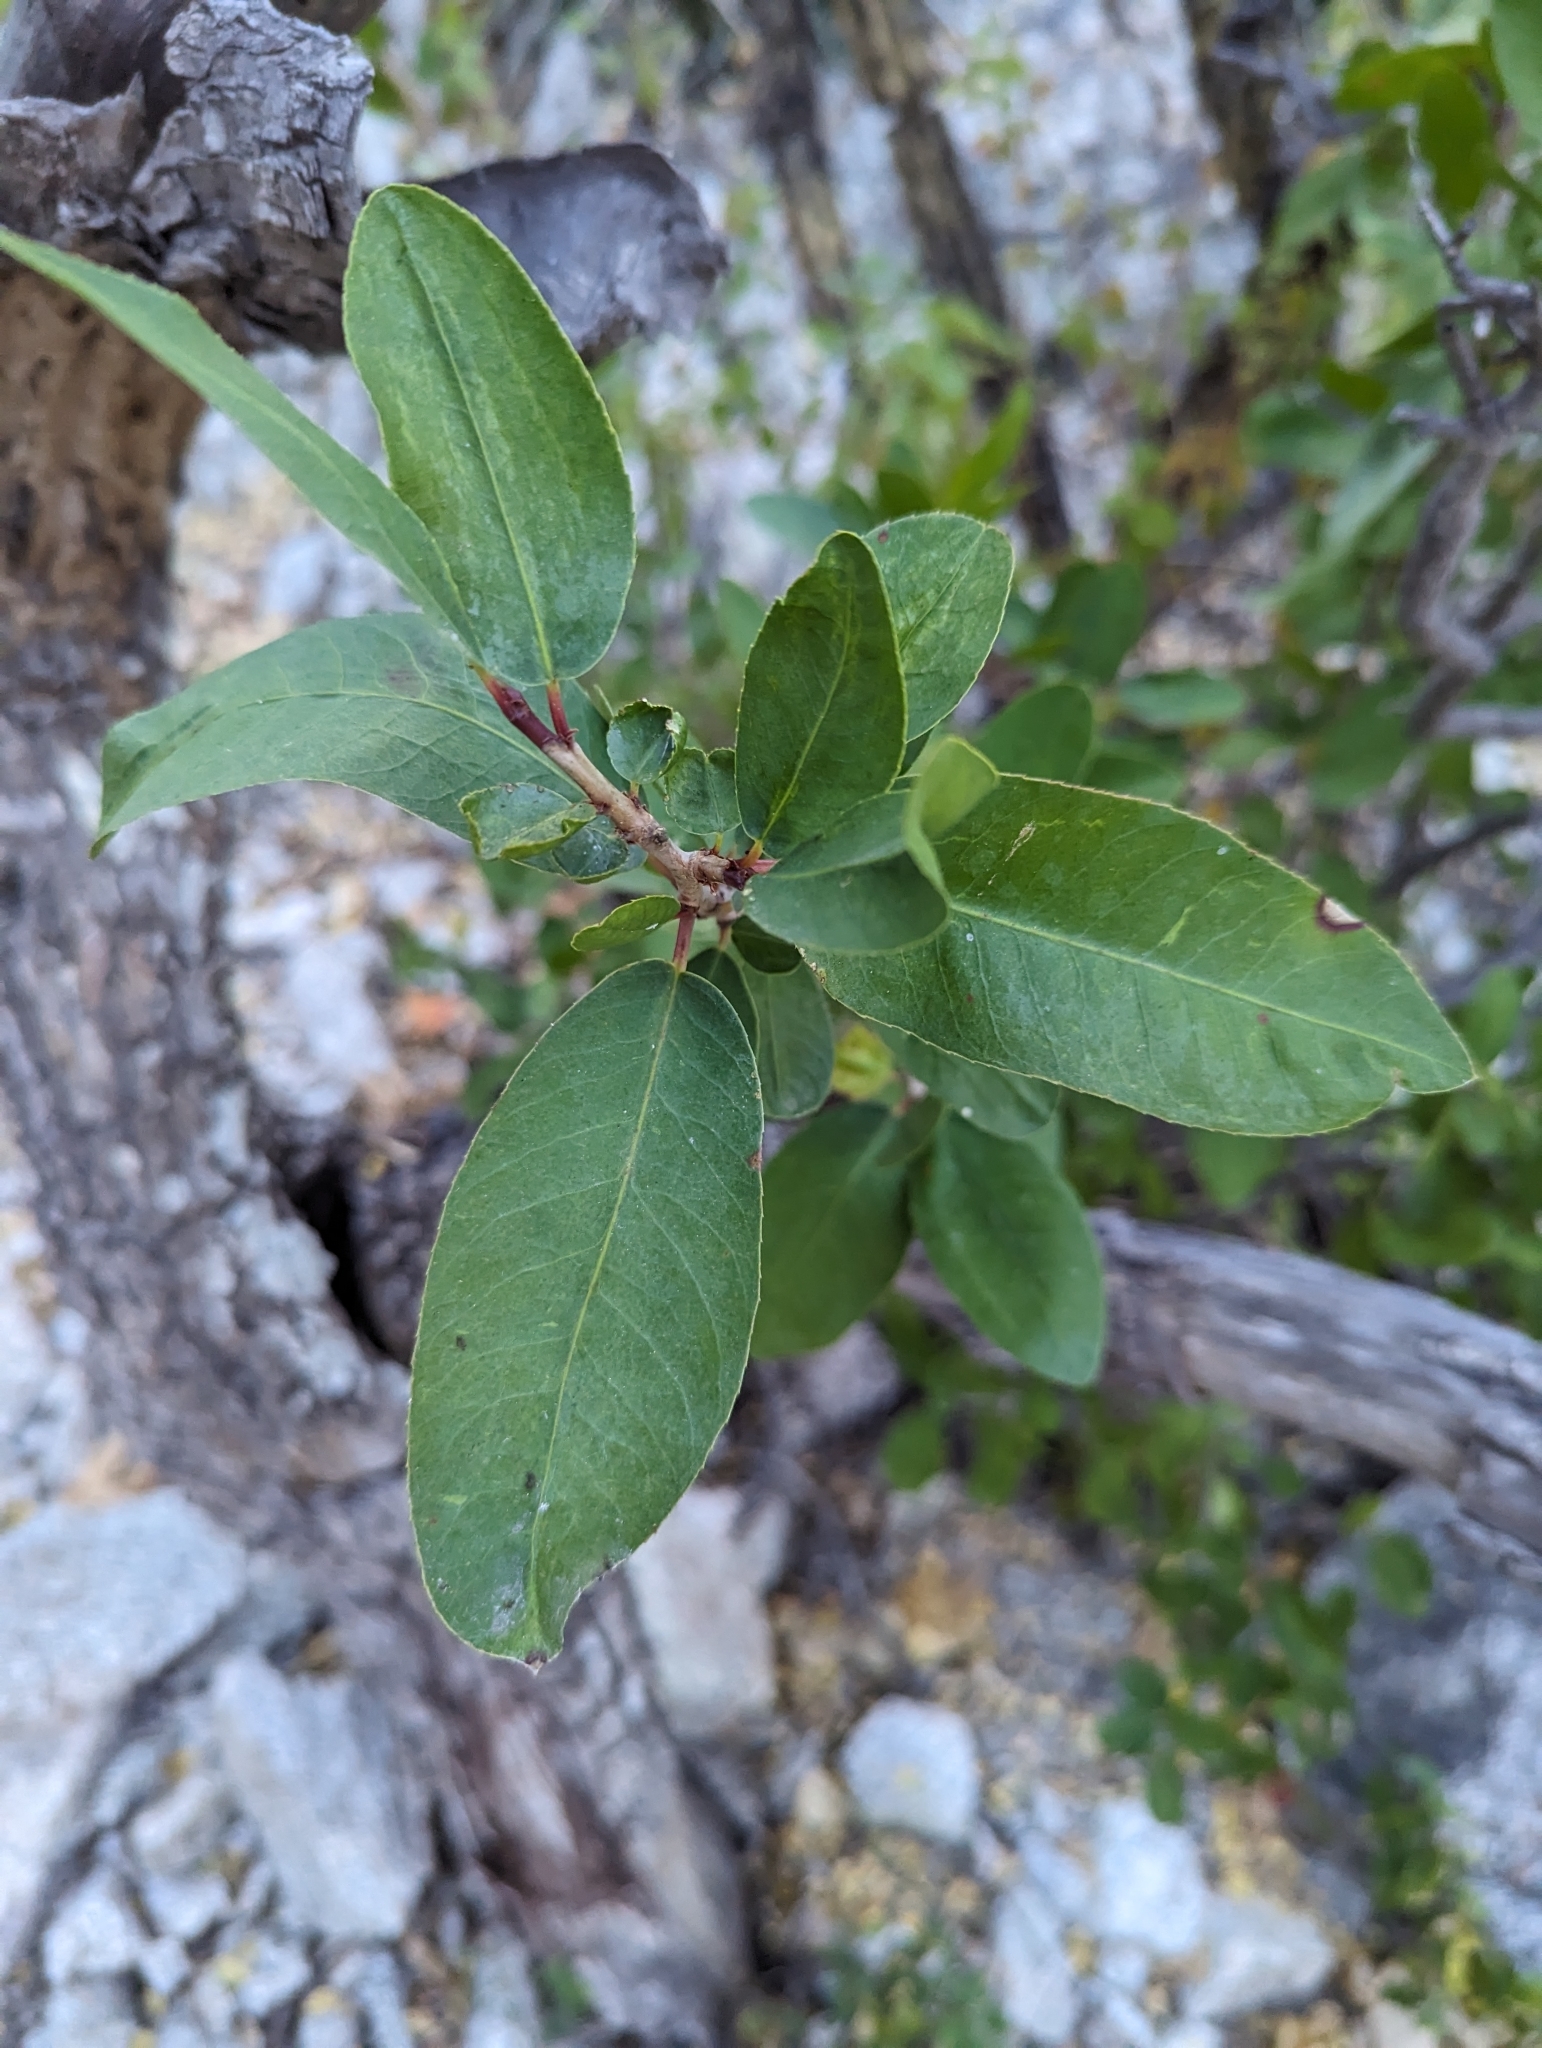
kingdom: Plantae
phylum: Tracheophyta
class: Magnoliopsida
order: Malpighiales
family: Euphorbiaceae
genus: Pleradenophora
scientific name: Pleradenophora bilocularis
